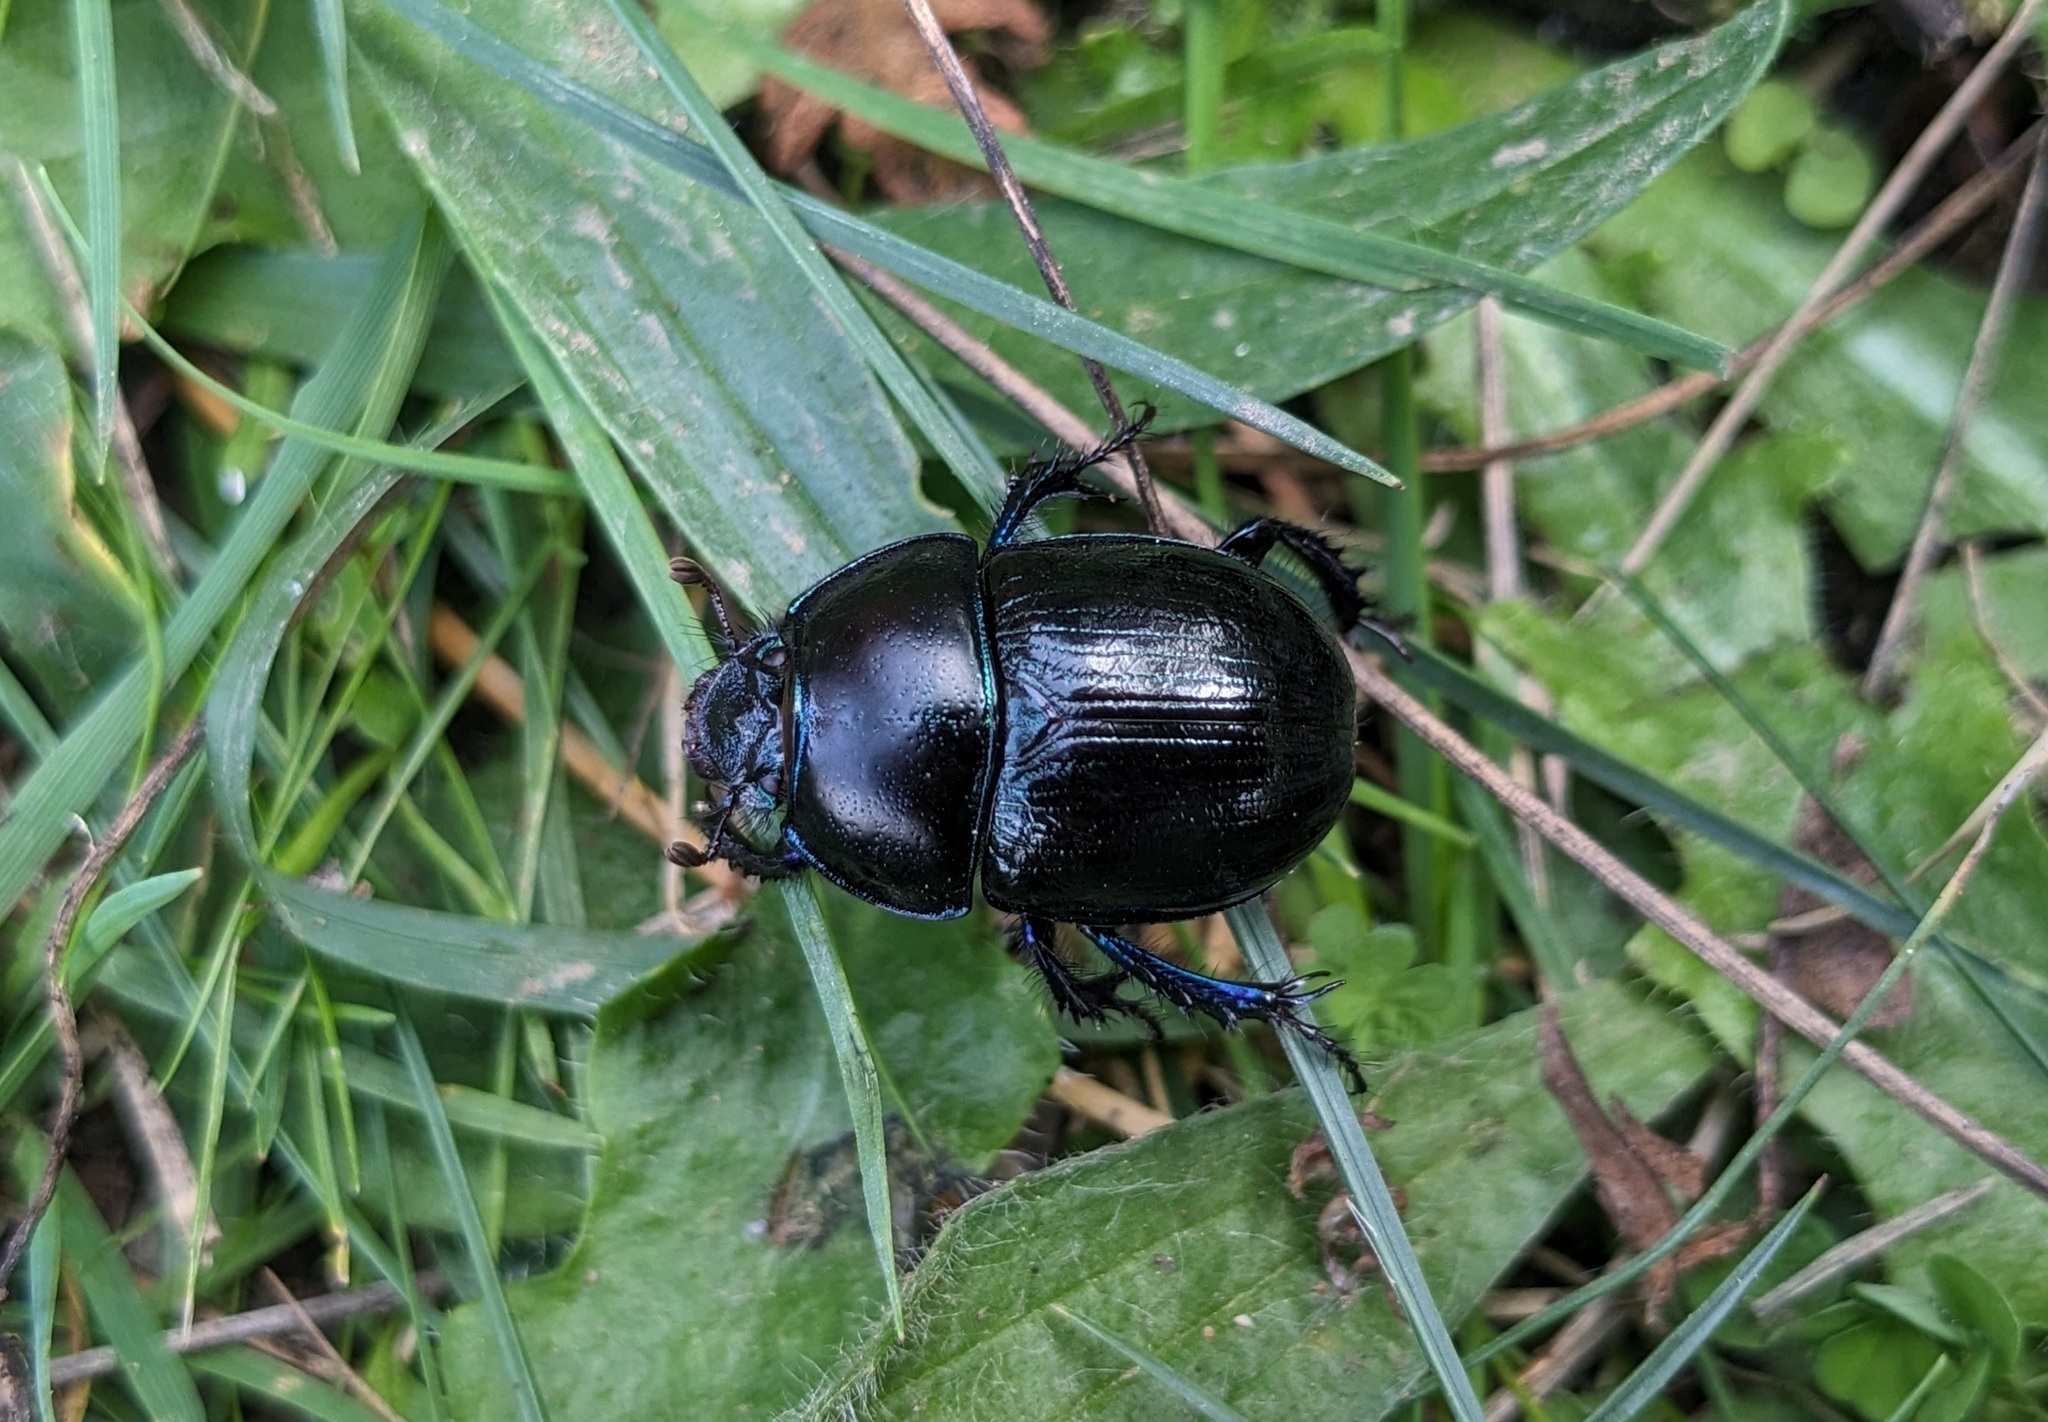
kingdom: Animalia
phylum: Arthropoda
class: Insecta
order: Coleoptera
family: Geotrupidae
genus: Anoplotrupes
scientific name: Anoplotrupes stercorosus
